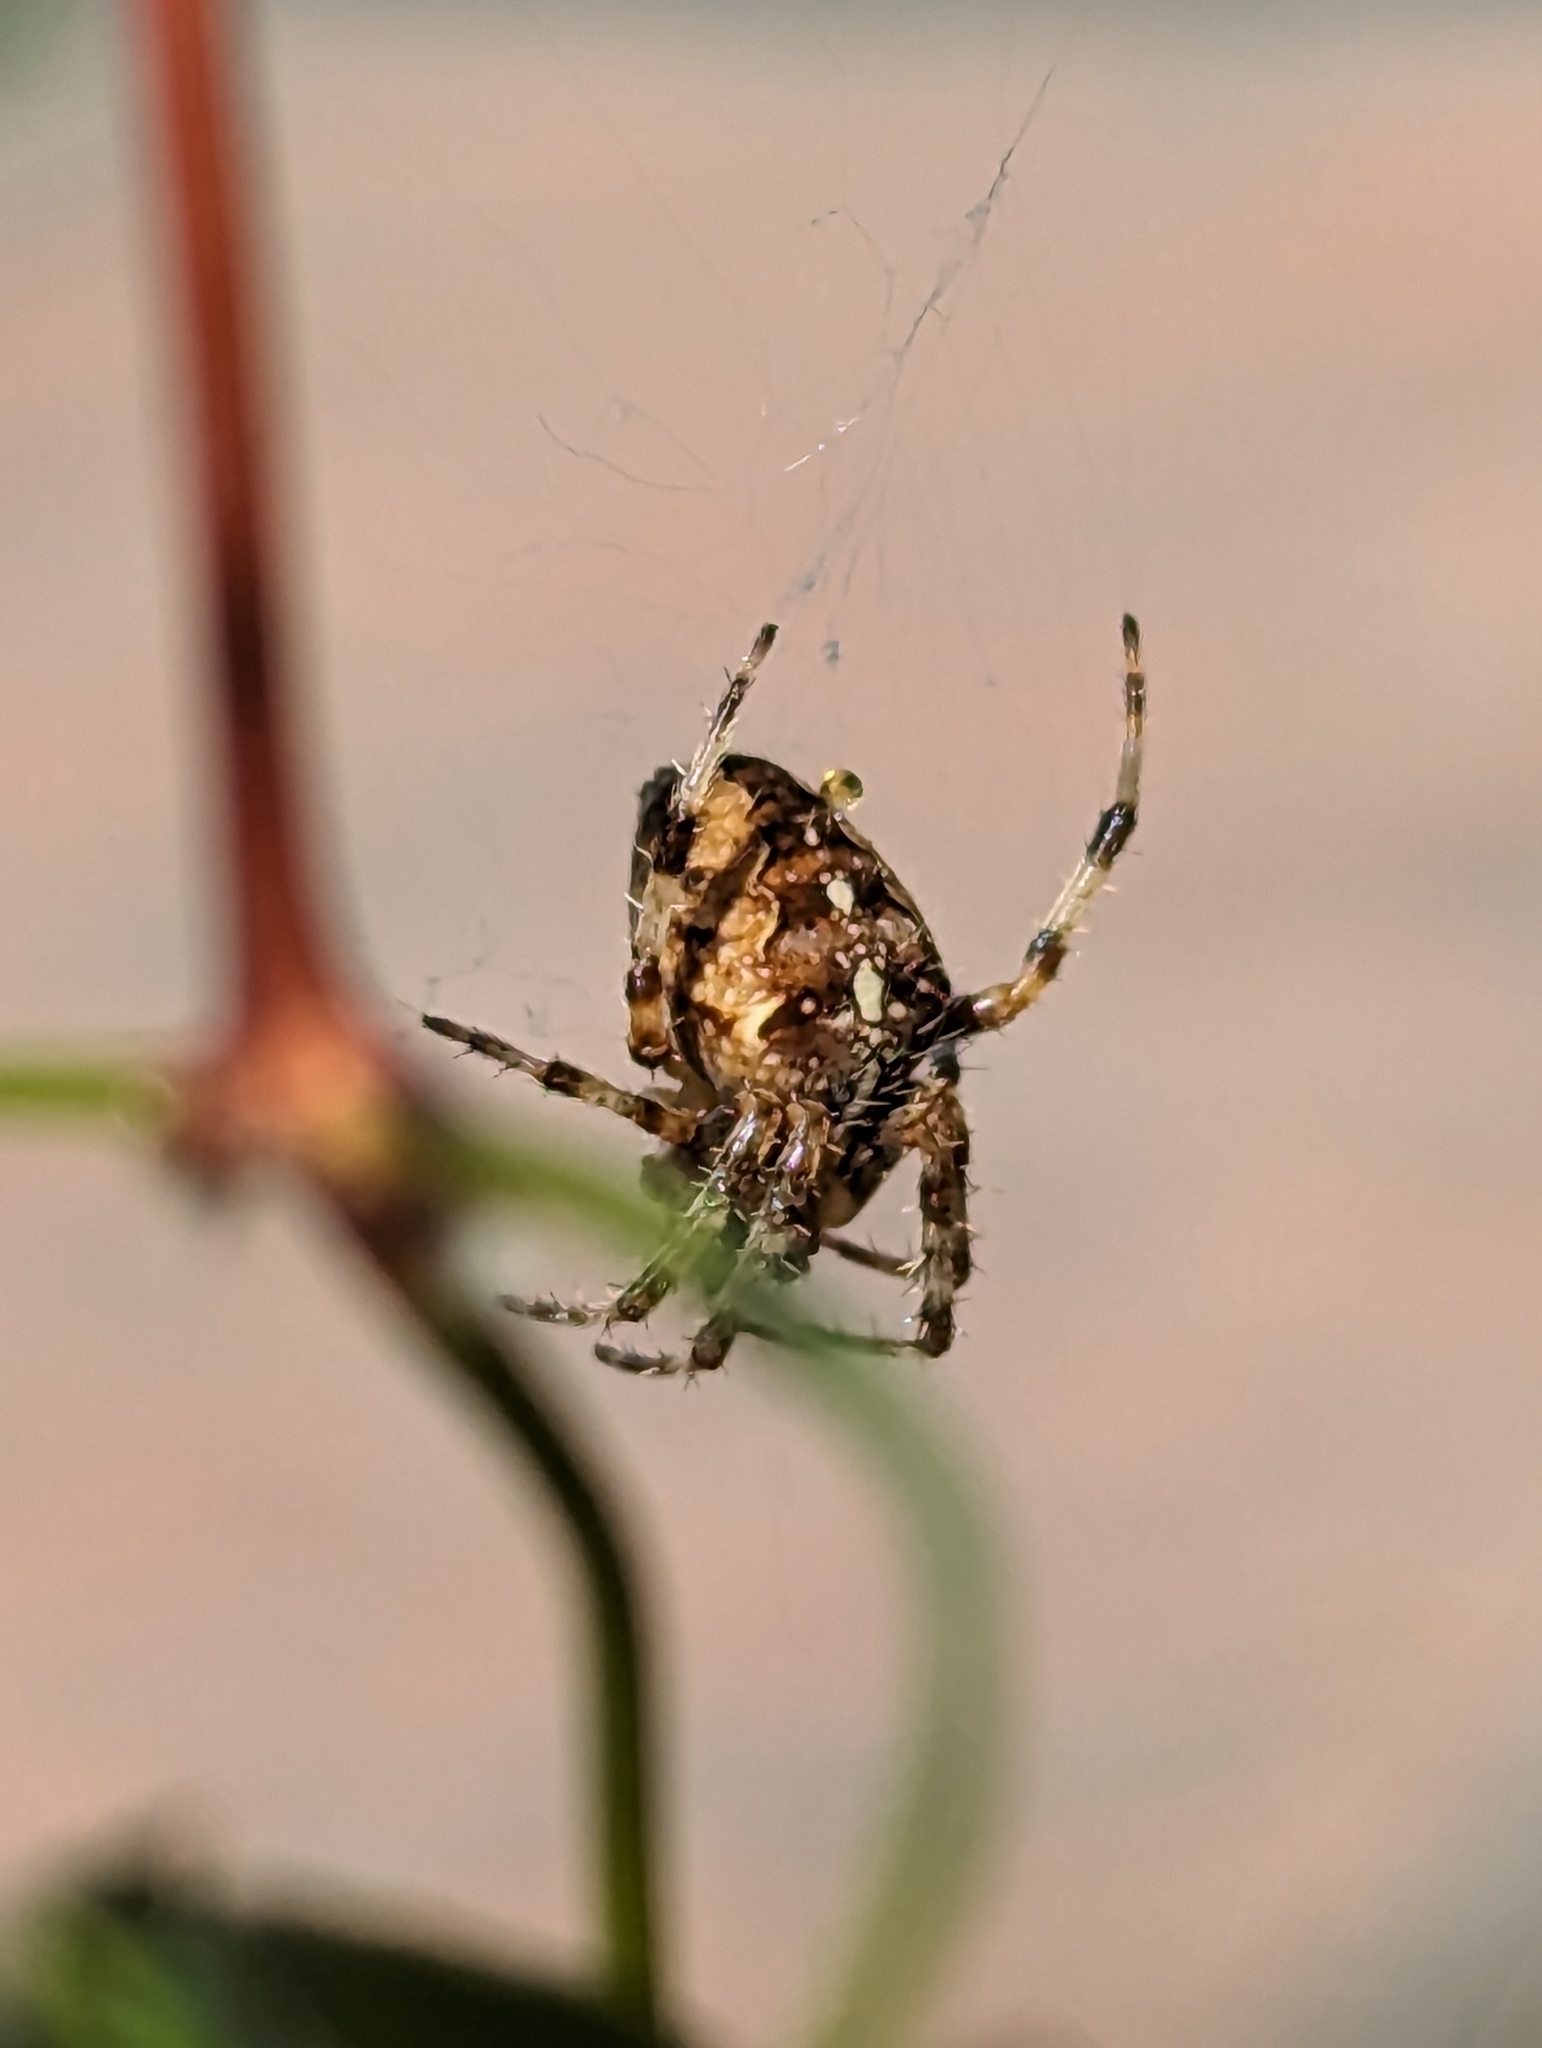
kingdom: Animalia
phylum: Arthropoda
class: Arachnida
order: Araneae
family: Araneidae
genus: Araneus
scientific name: Araneus diadematus
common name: Cross orbweaver
